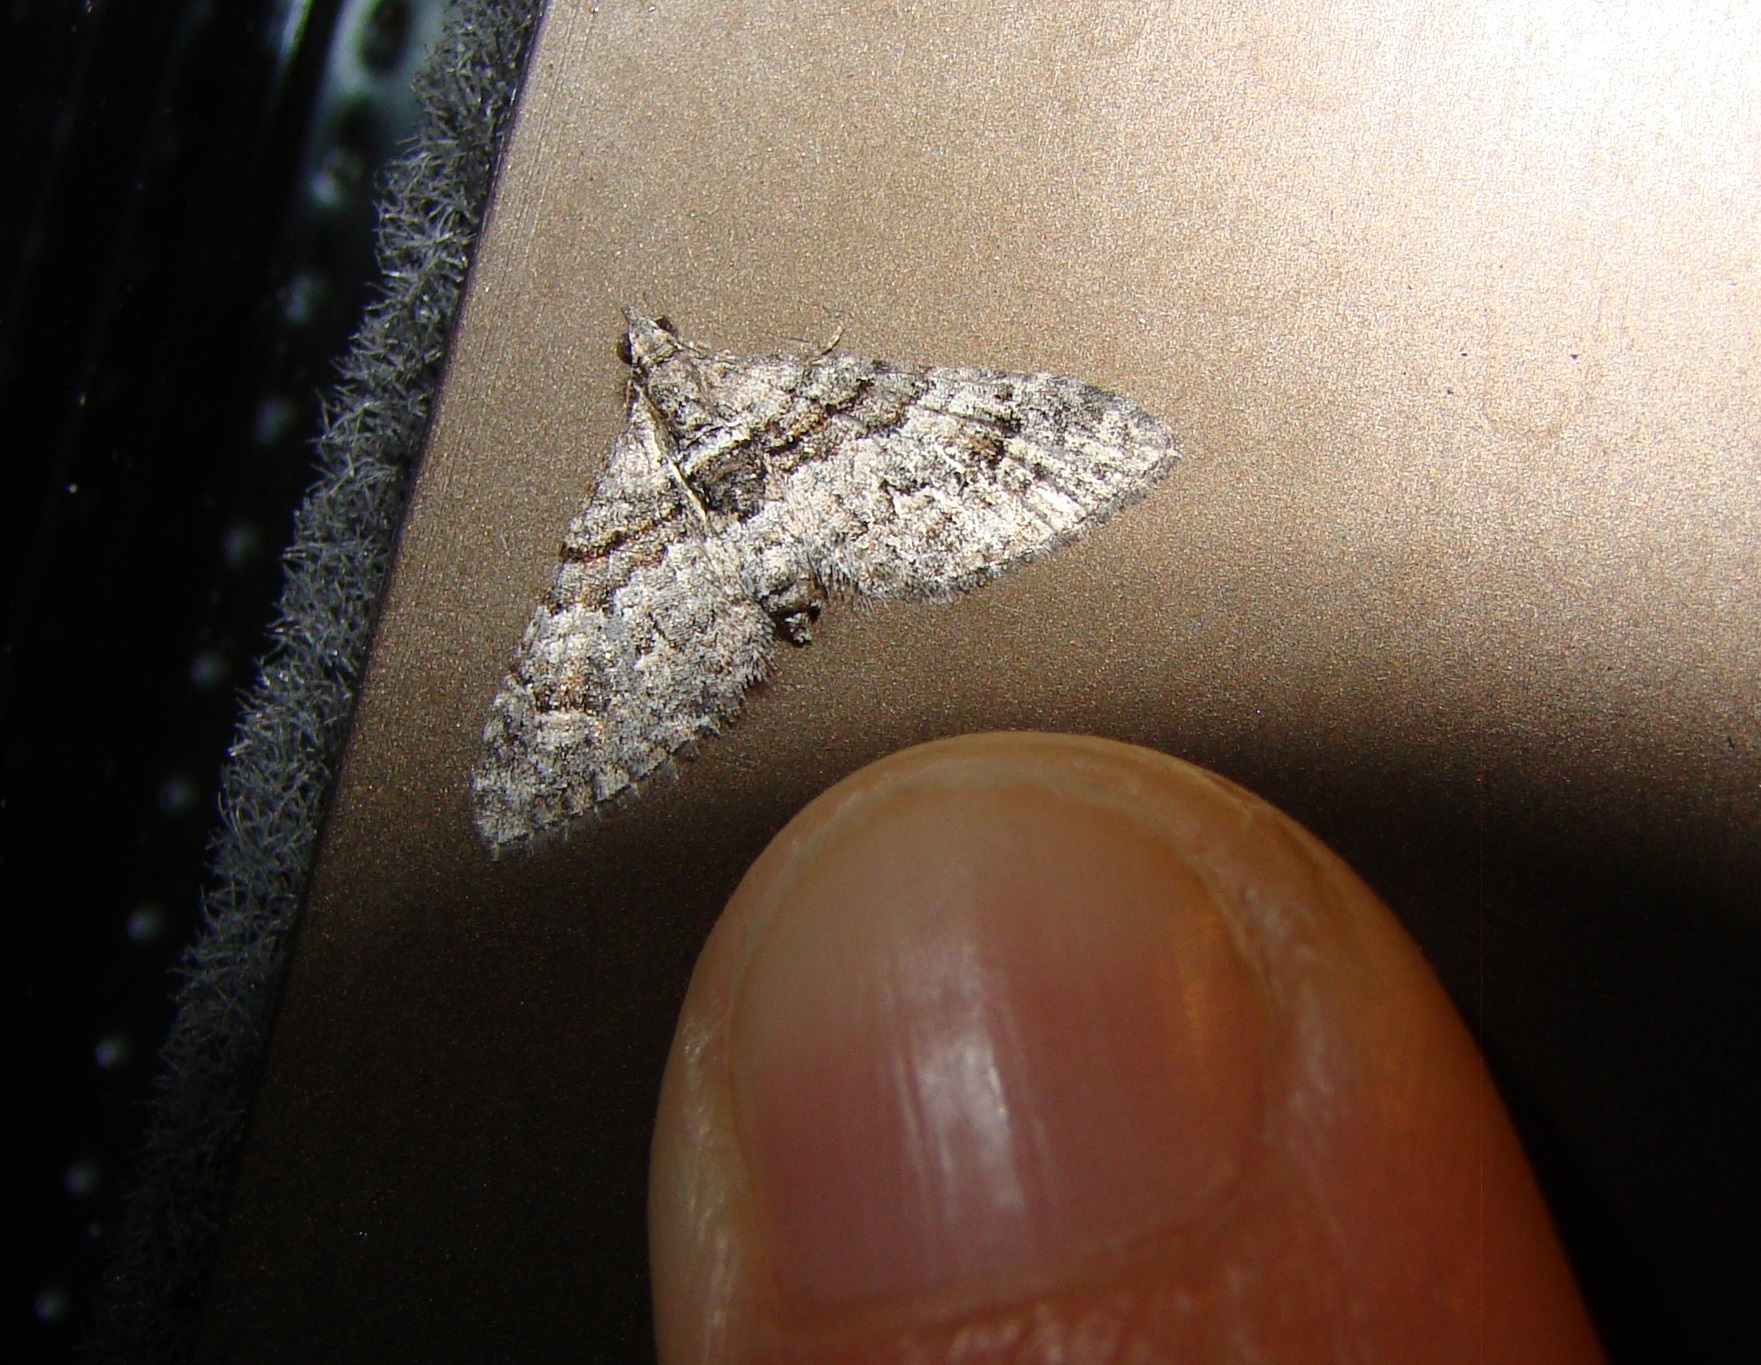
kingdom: Animalia
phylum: Arthropoda
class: Insecta
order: Lepidoptera
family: Geometridae
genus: Phrissogonus
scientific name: Phrissogonus laticostata
